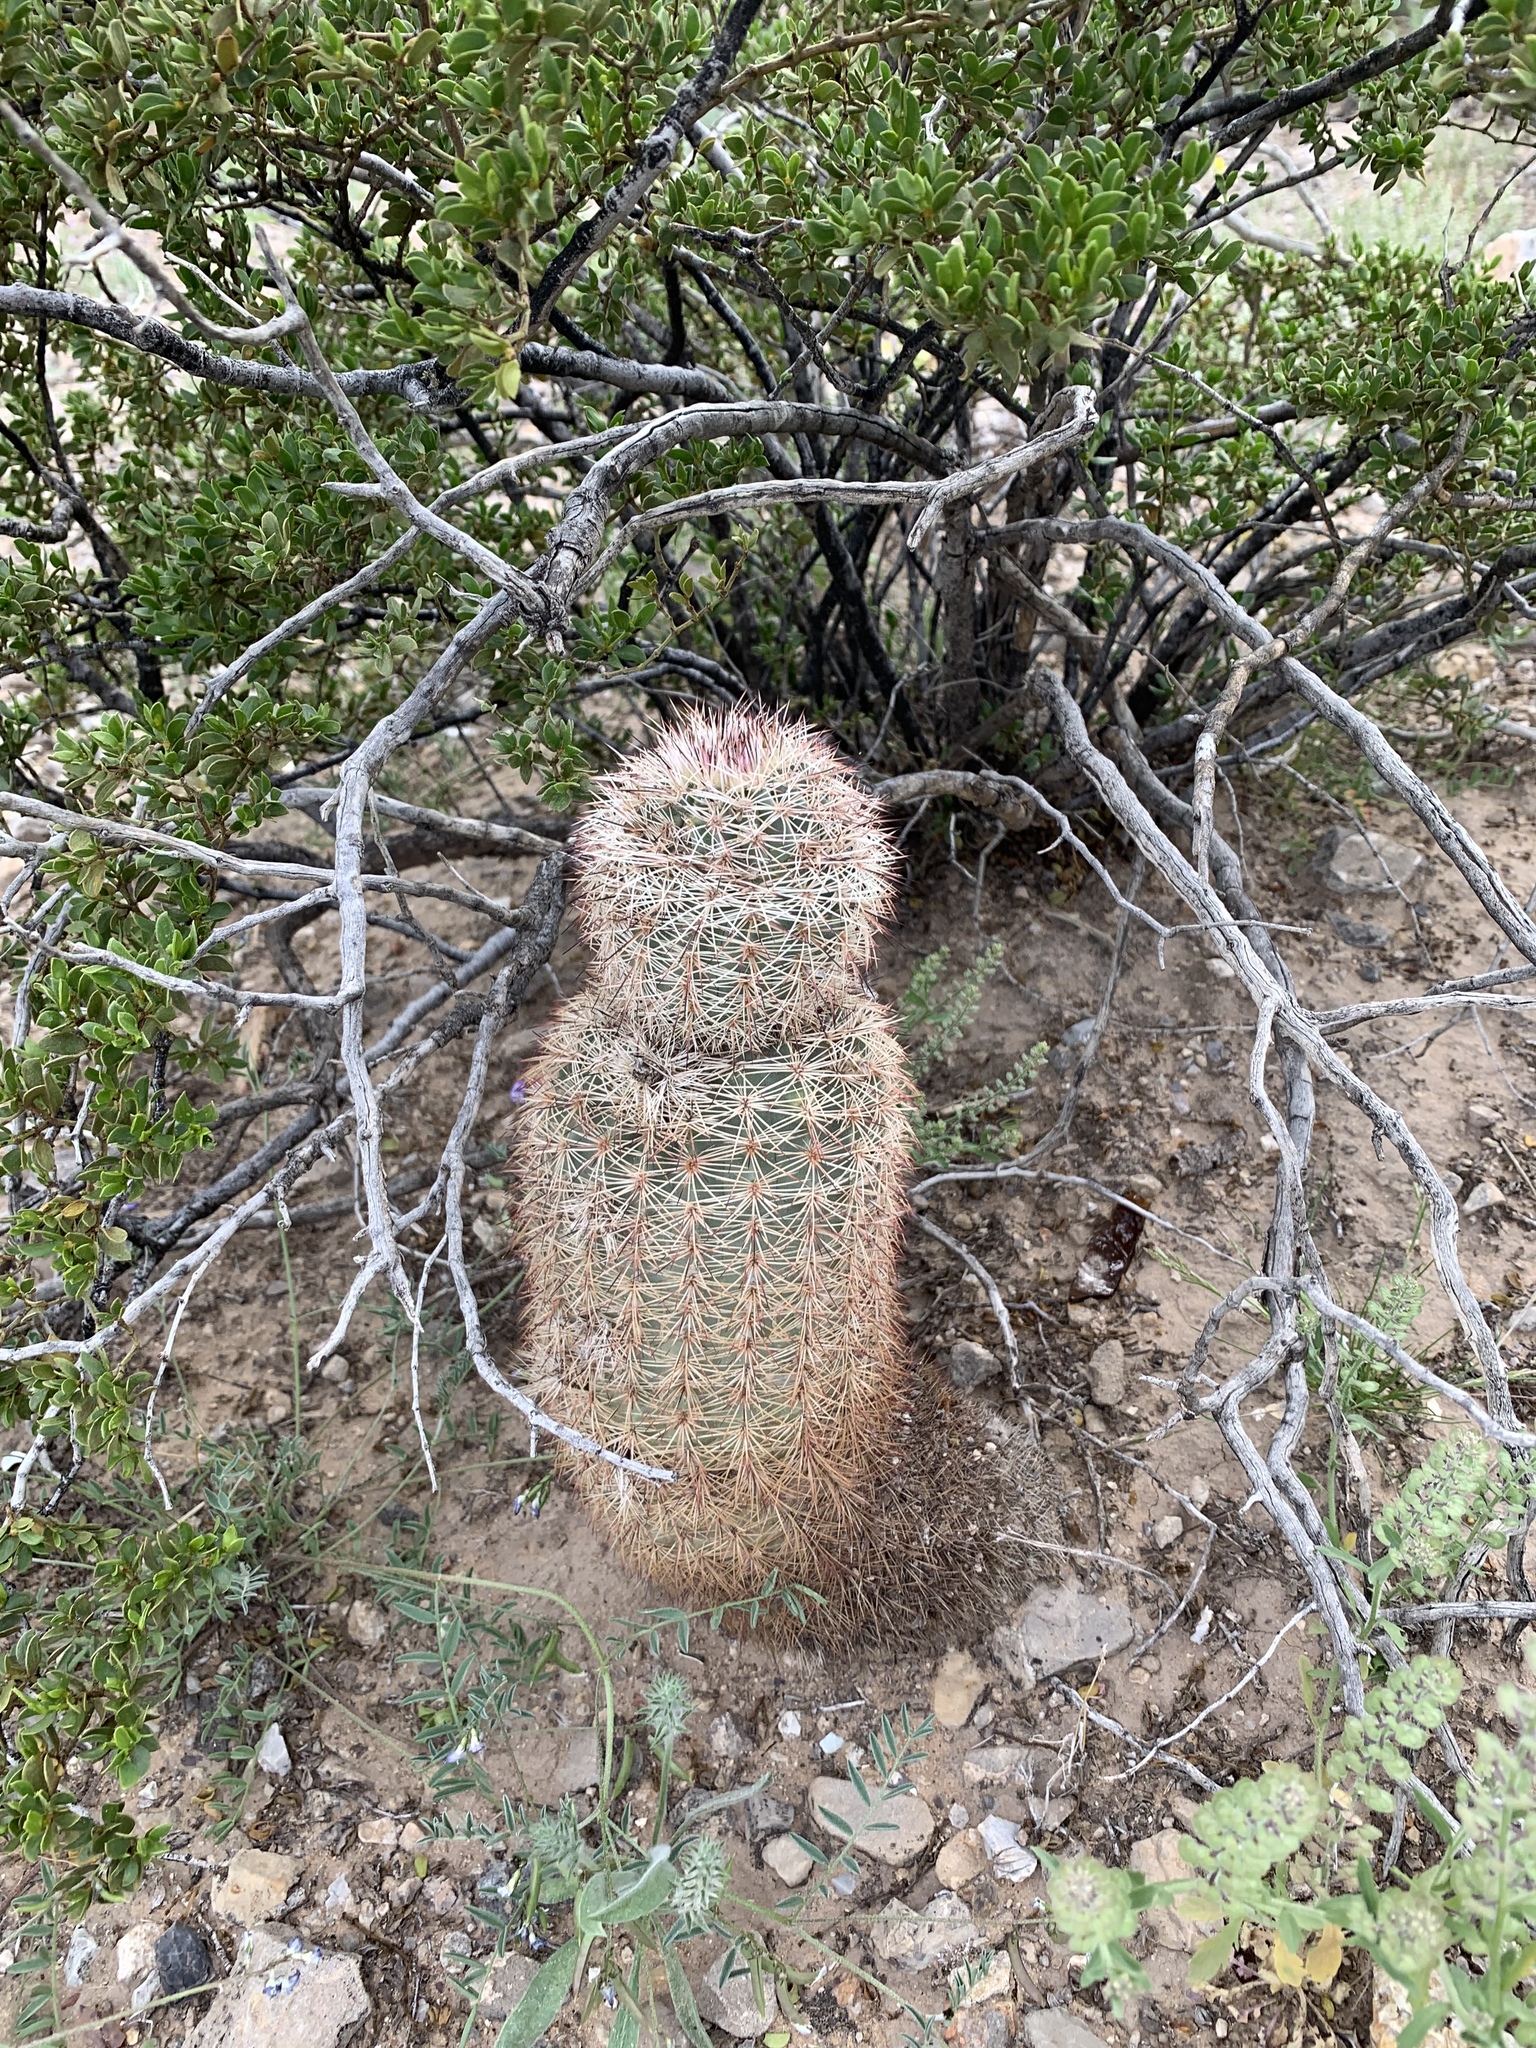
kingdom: Plantae
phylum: Tracheophyta
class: Magnoliopsida
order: Caryophyllales
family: Cactaceae
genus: Echinocereus
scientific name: Echinocereus dasyacanthus
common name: Spiny hedgehog cactus
